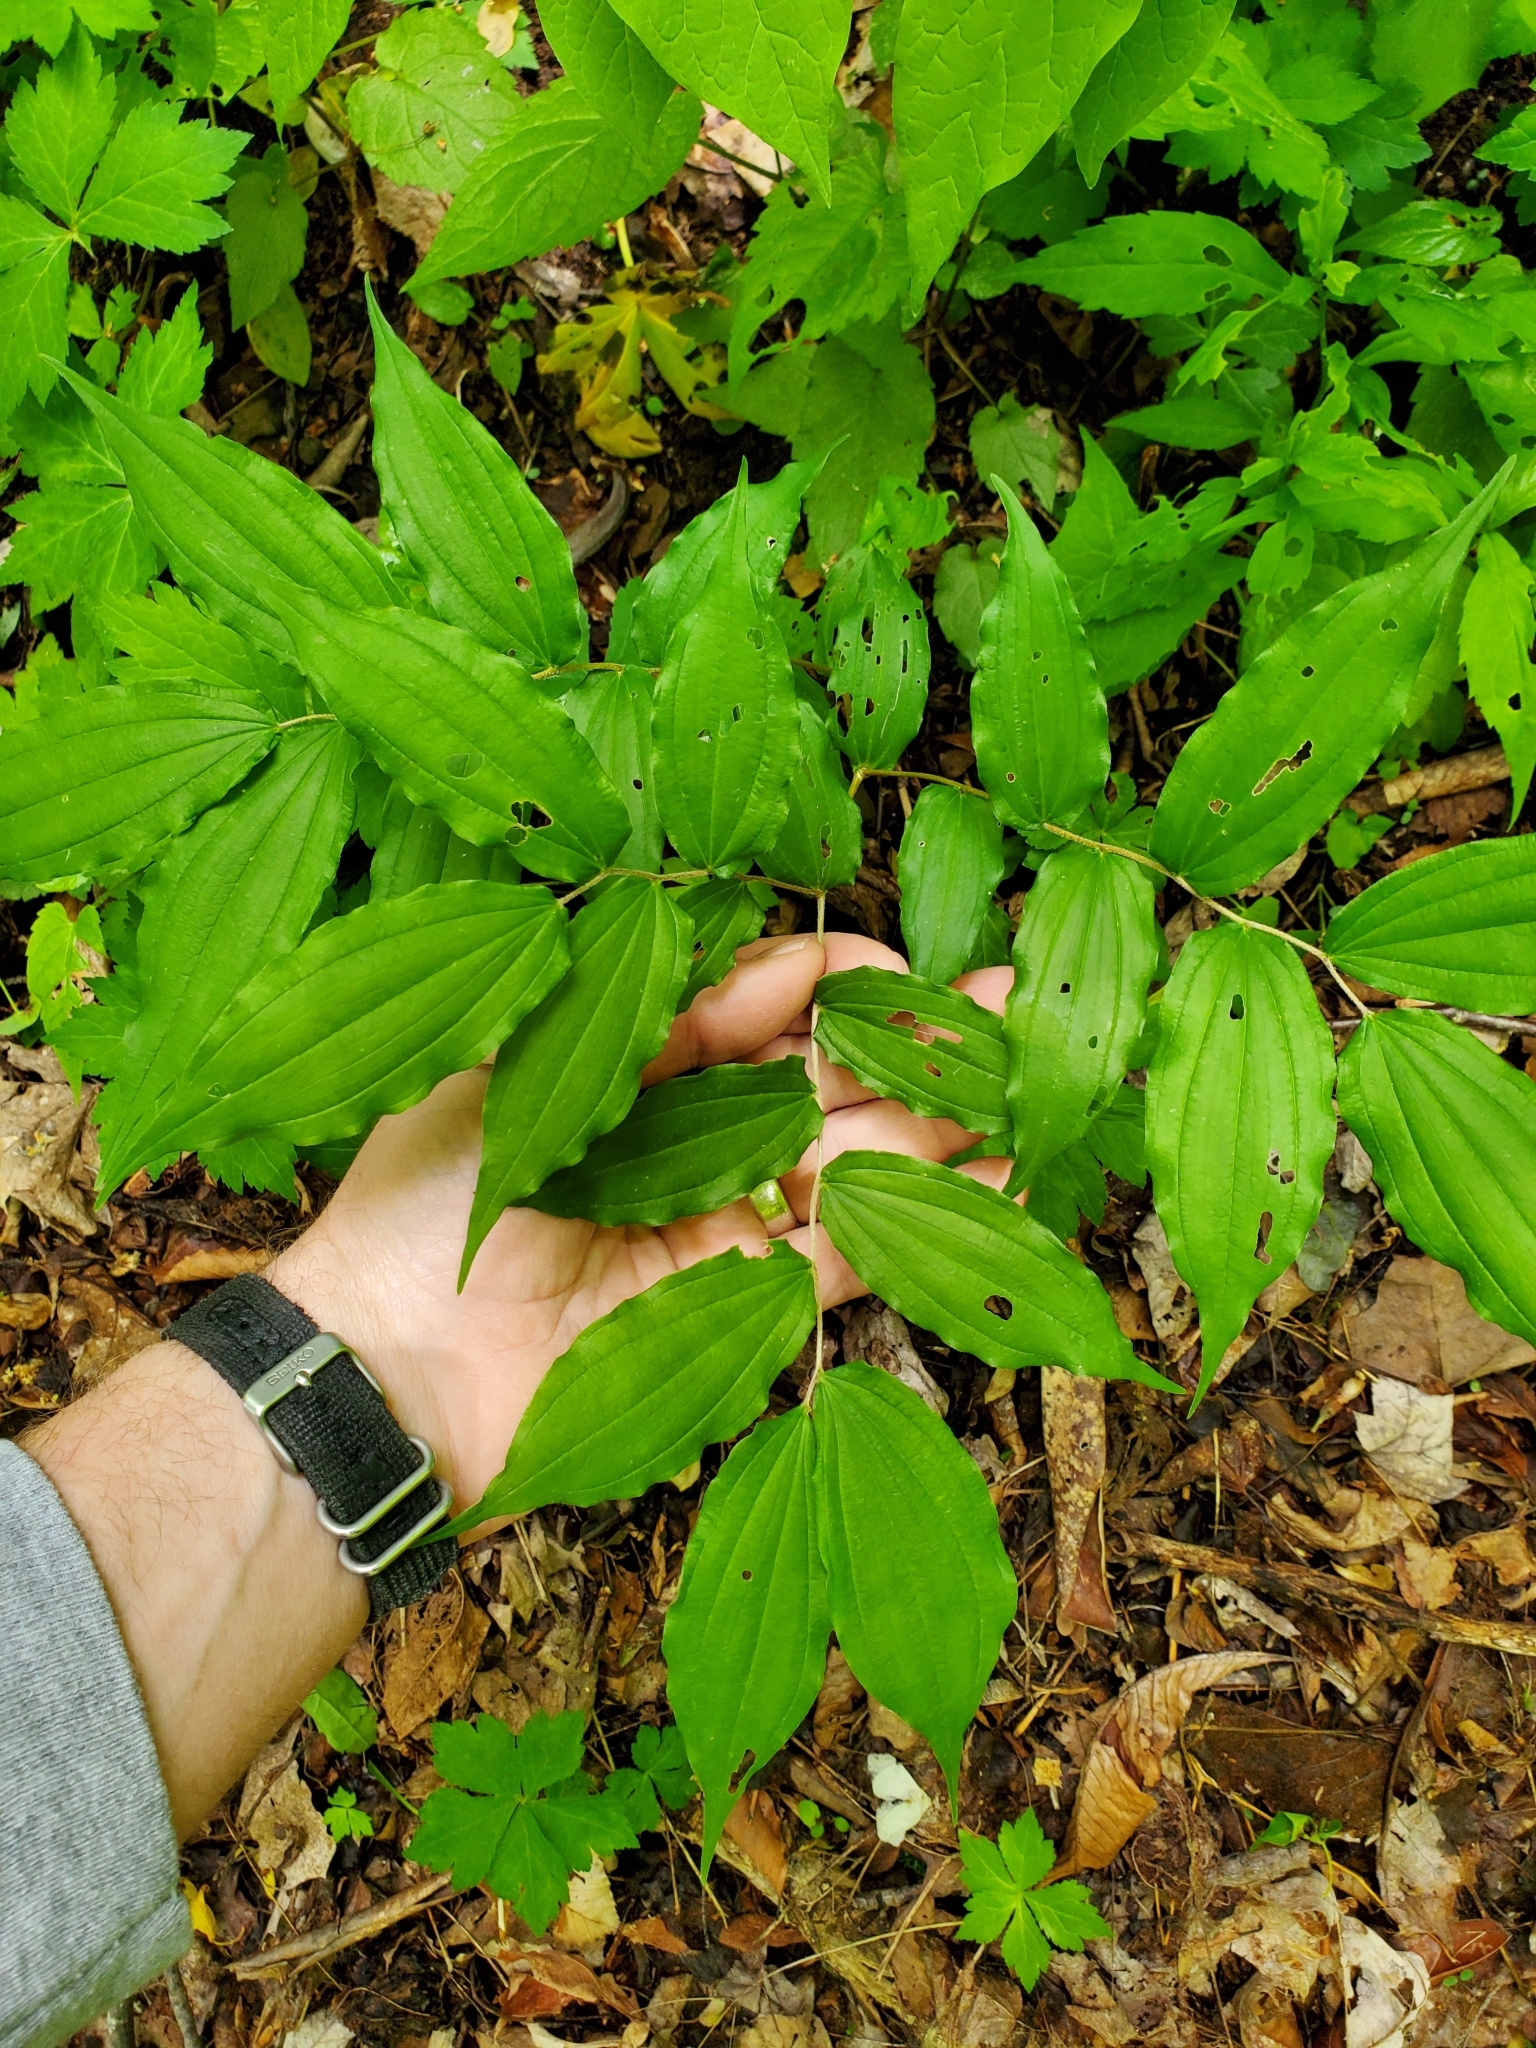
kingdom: Plantae
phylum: Tracheophyta
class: Liliopsida
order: Liliales
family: Liliaceae
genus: Prosartes
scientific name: Prosartes lanuginosa
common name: Hairy mandarin
